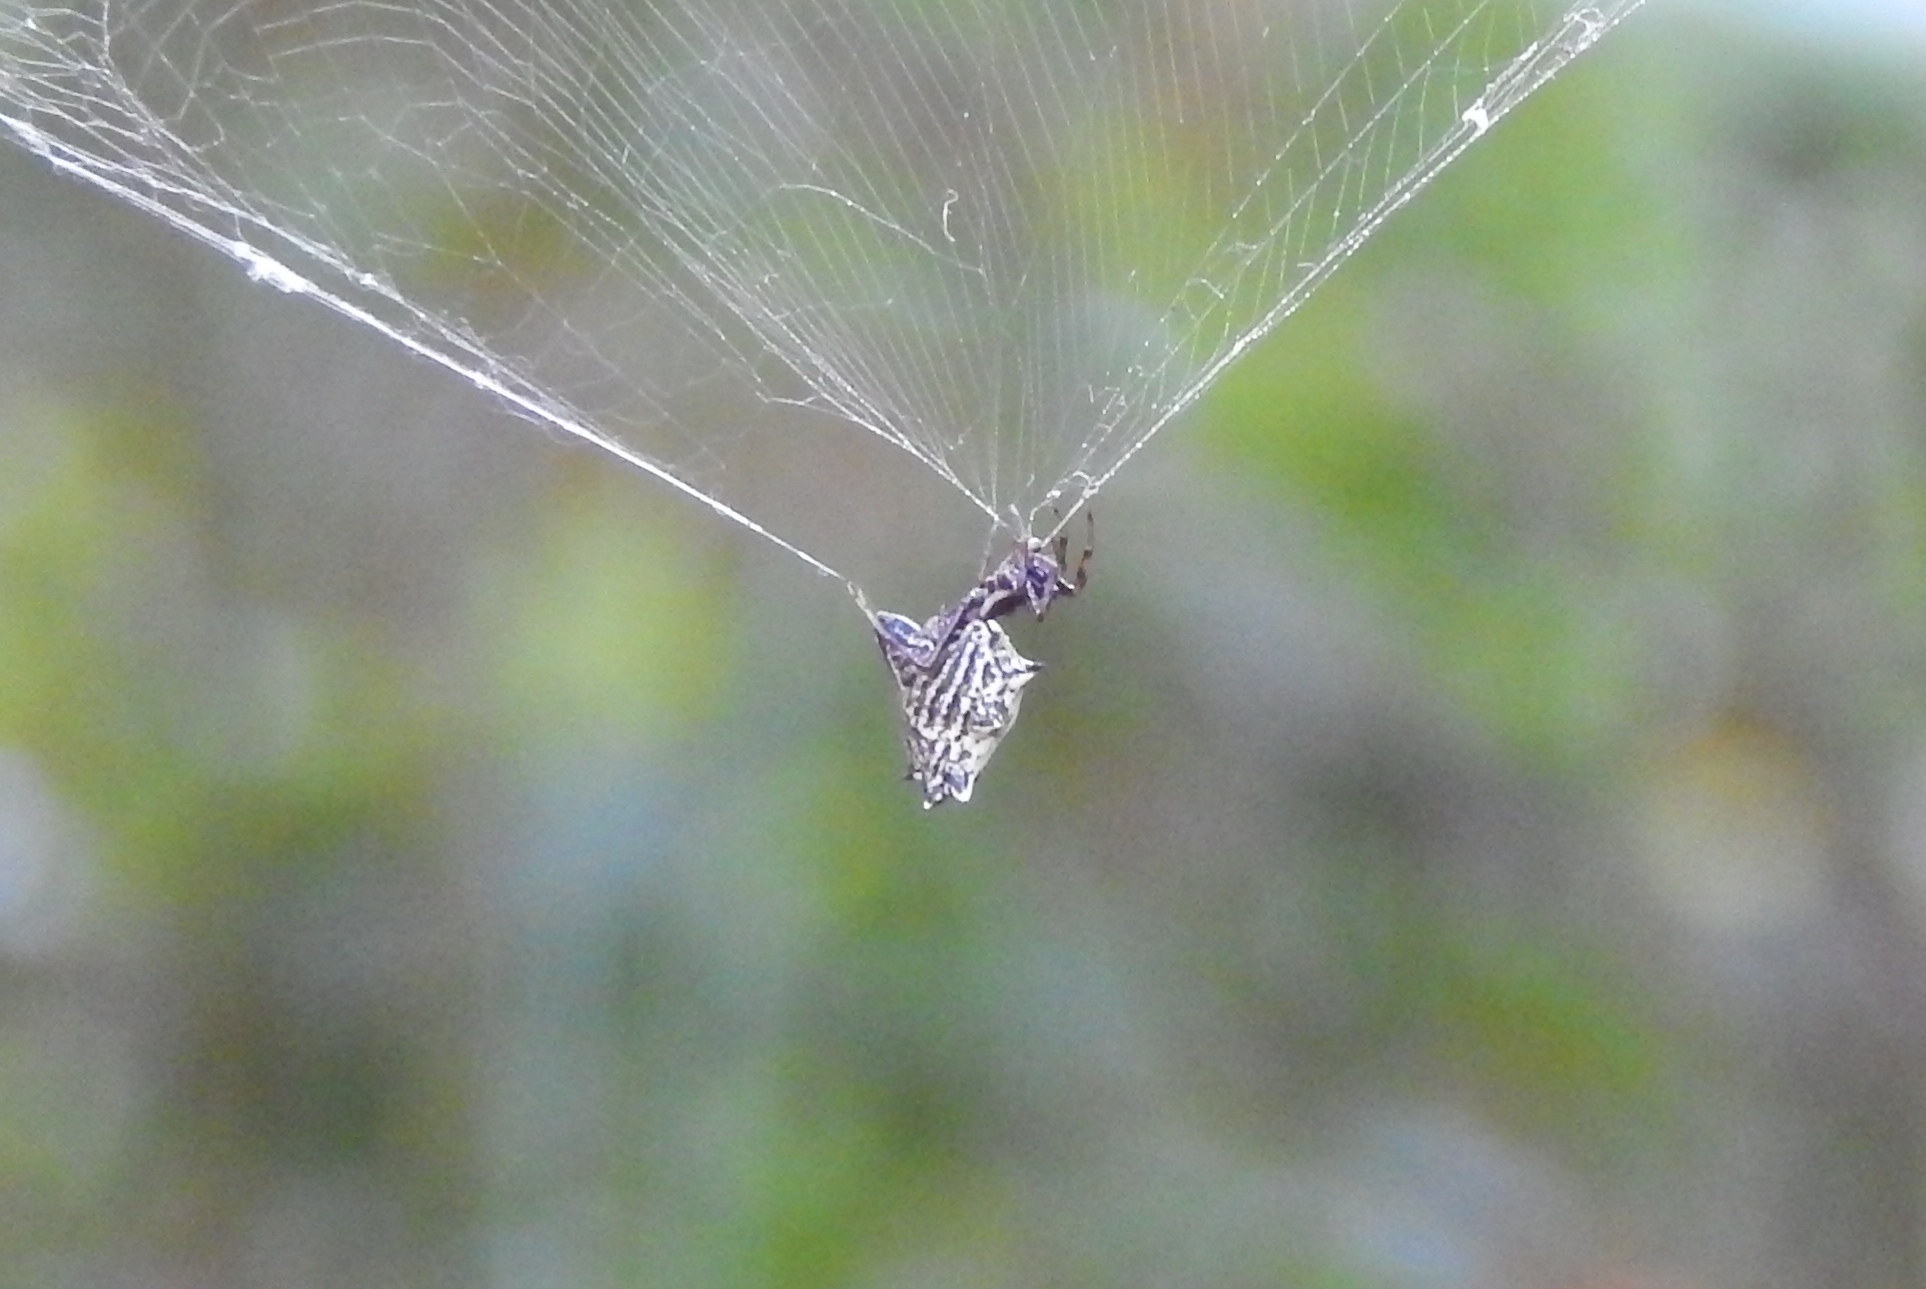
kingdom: Animalia
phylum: Arthropoda
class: Arachnida
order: Araneae
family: Araneidae
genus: Micrathena
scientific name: Micrathena gracilis
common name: Orb weavers
